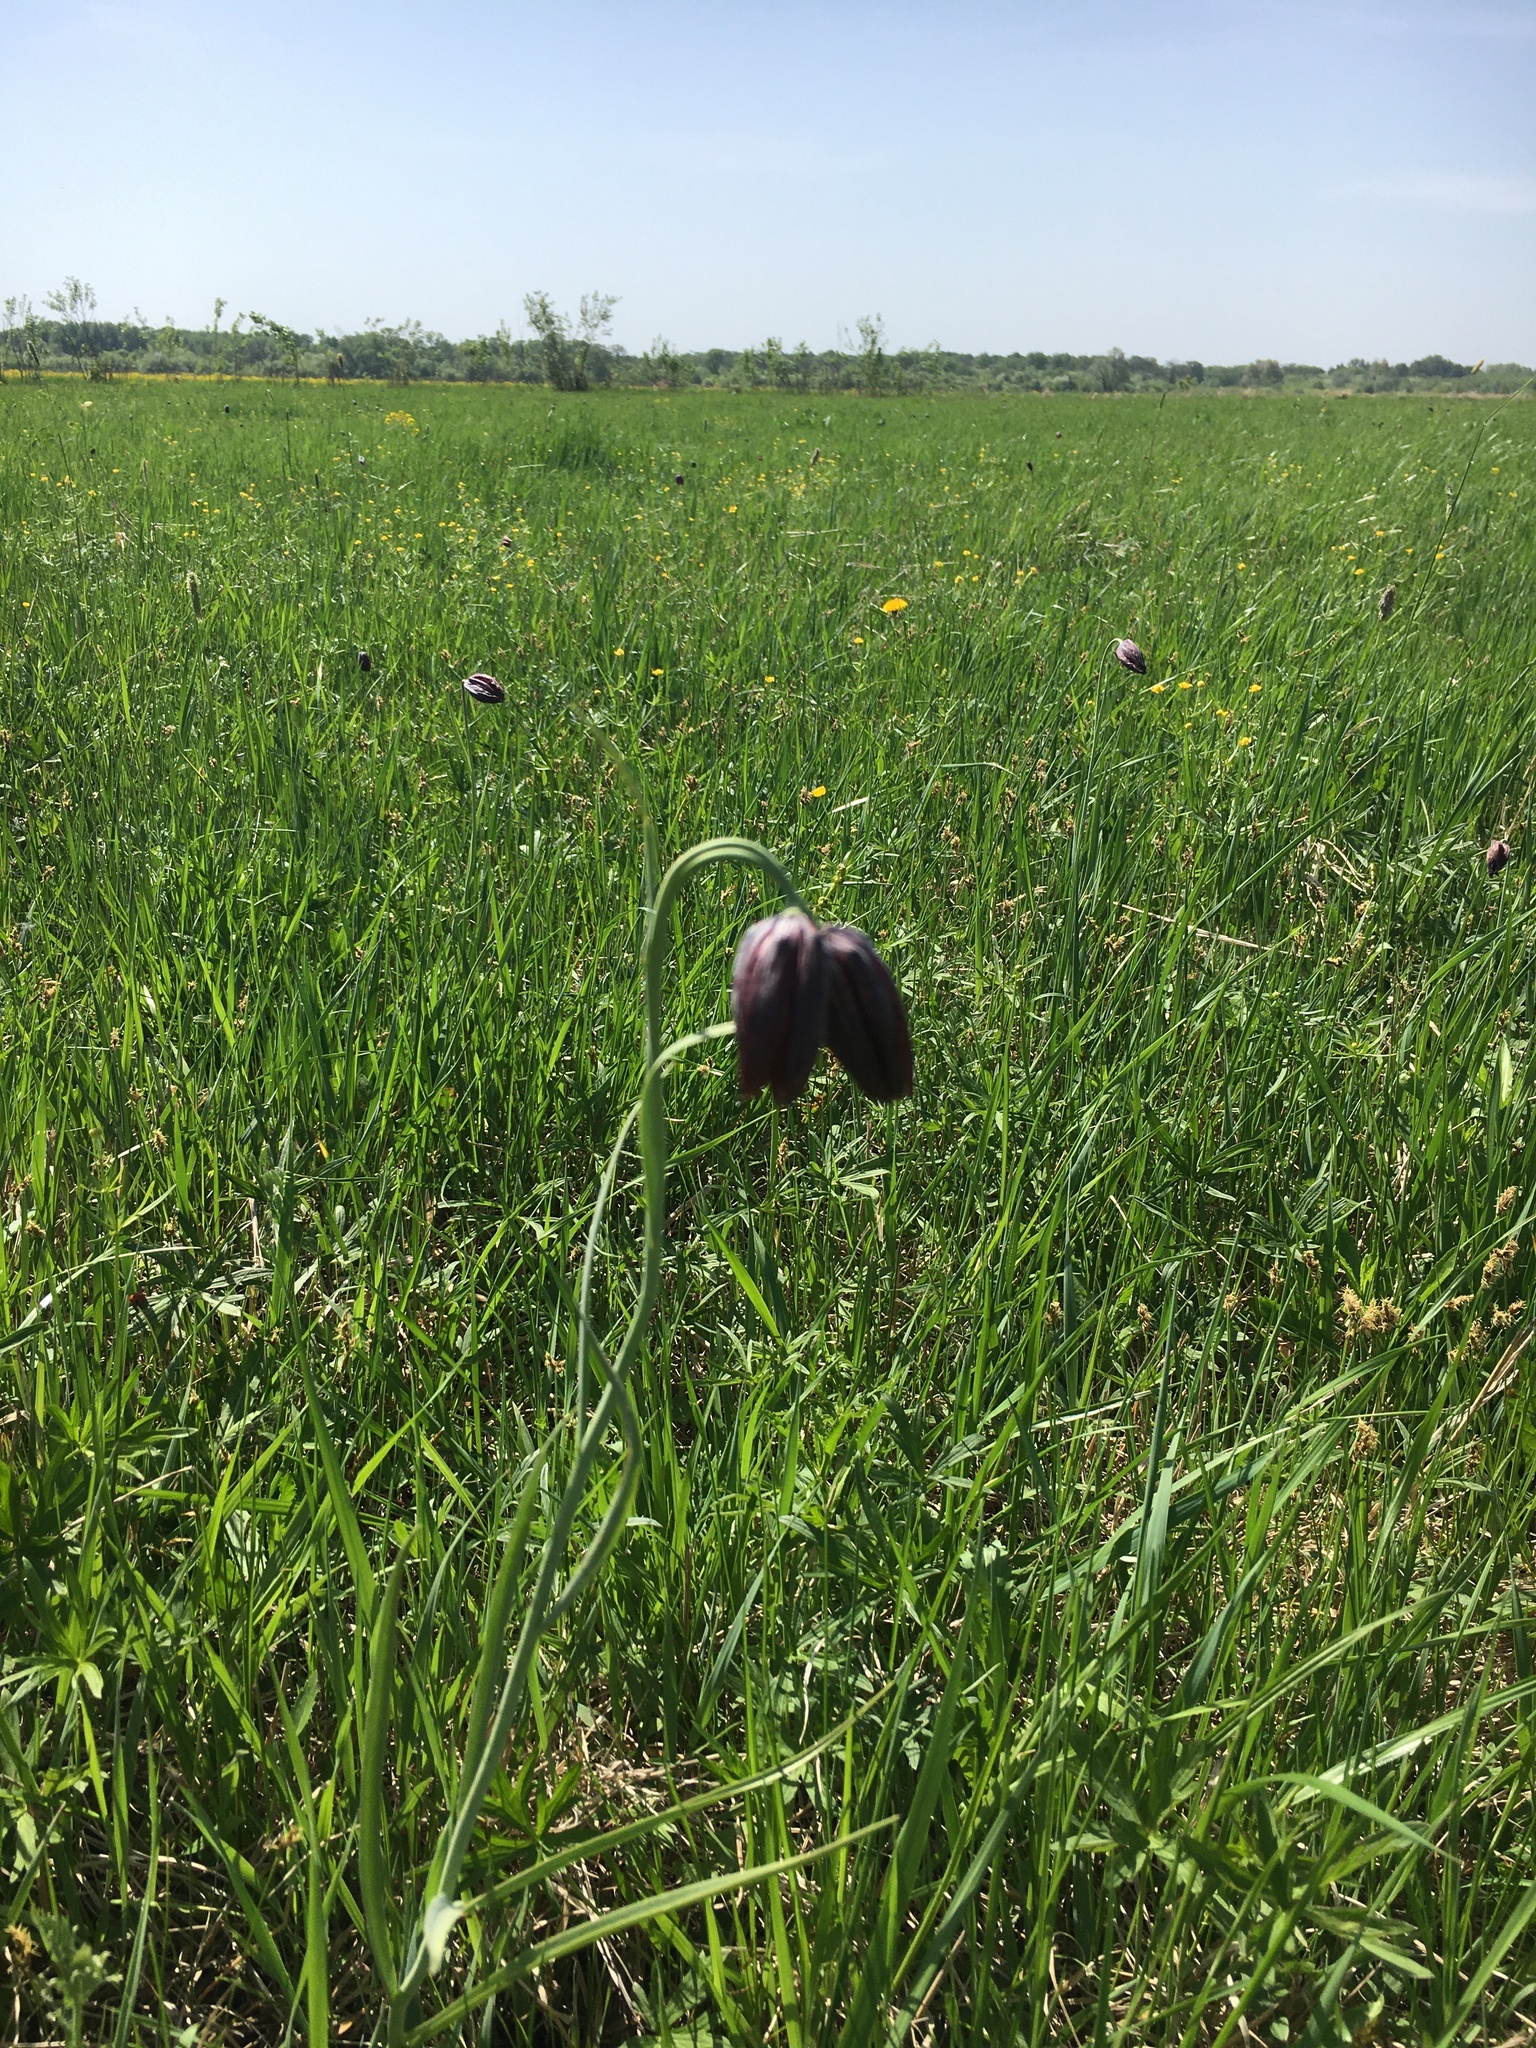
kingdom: Plantae
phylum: Tracheophyta
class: Liliopsida
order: Liliales
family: Liliaceae
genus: Fritillaria
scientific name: Fritillaria meleagroides
